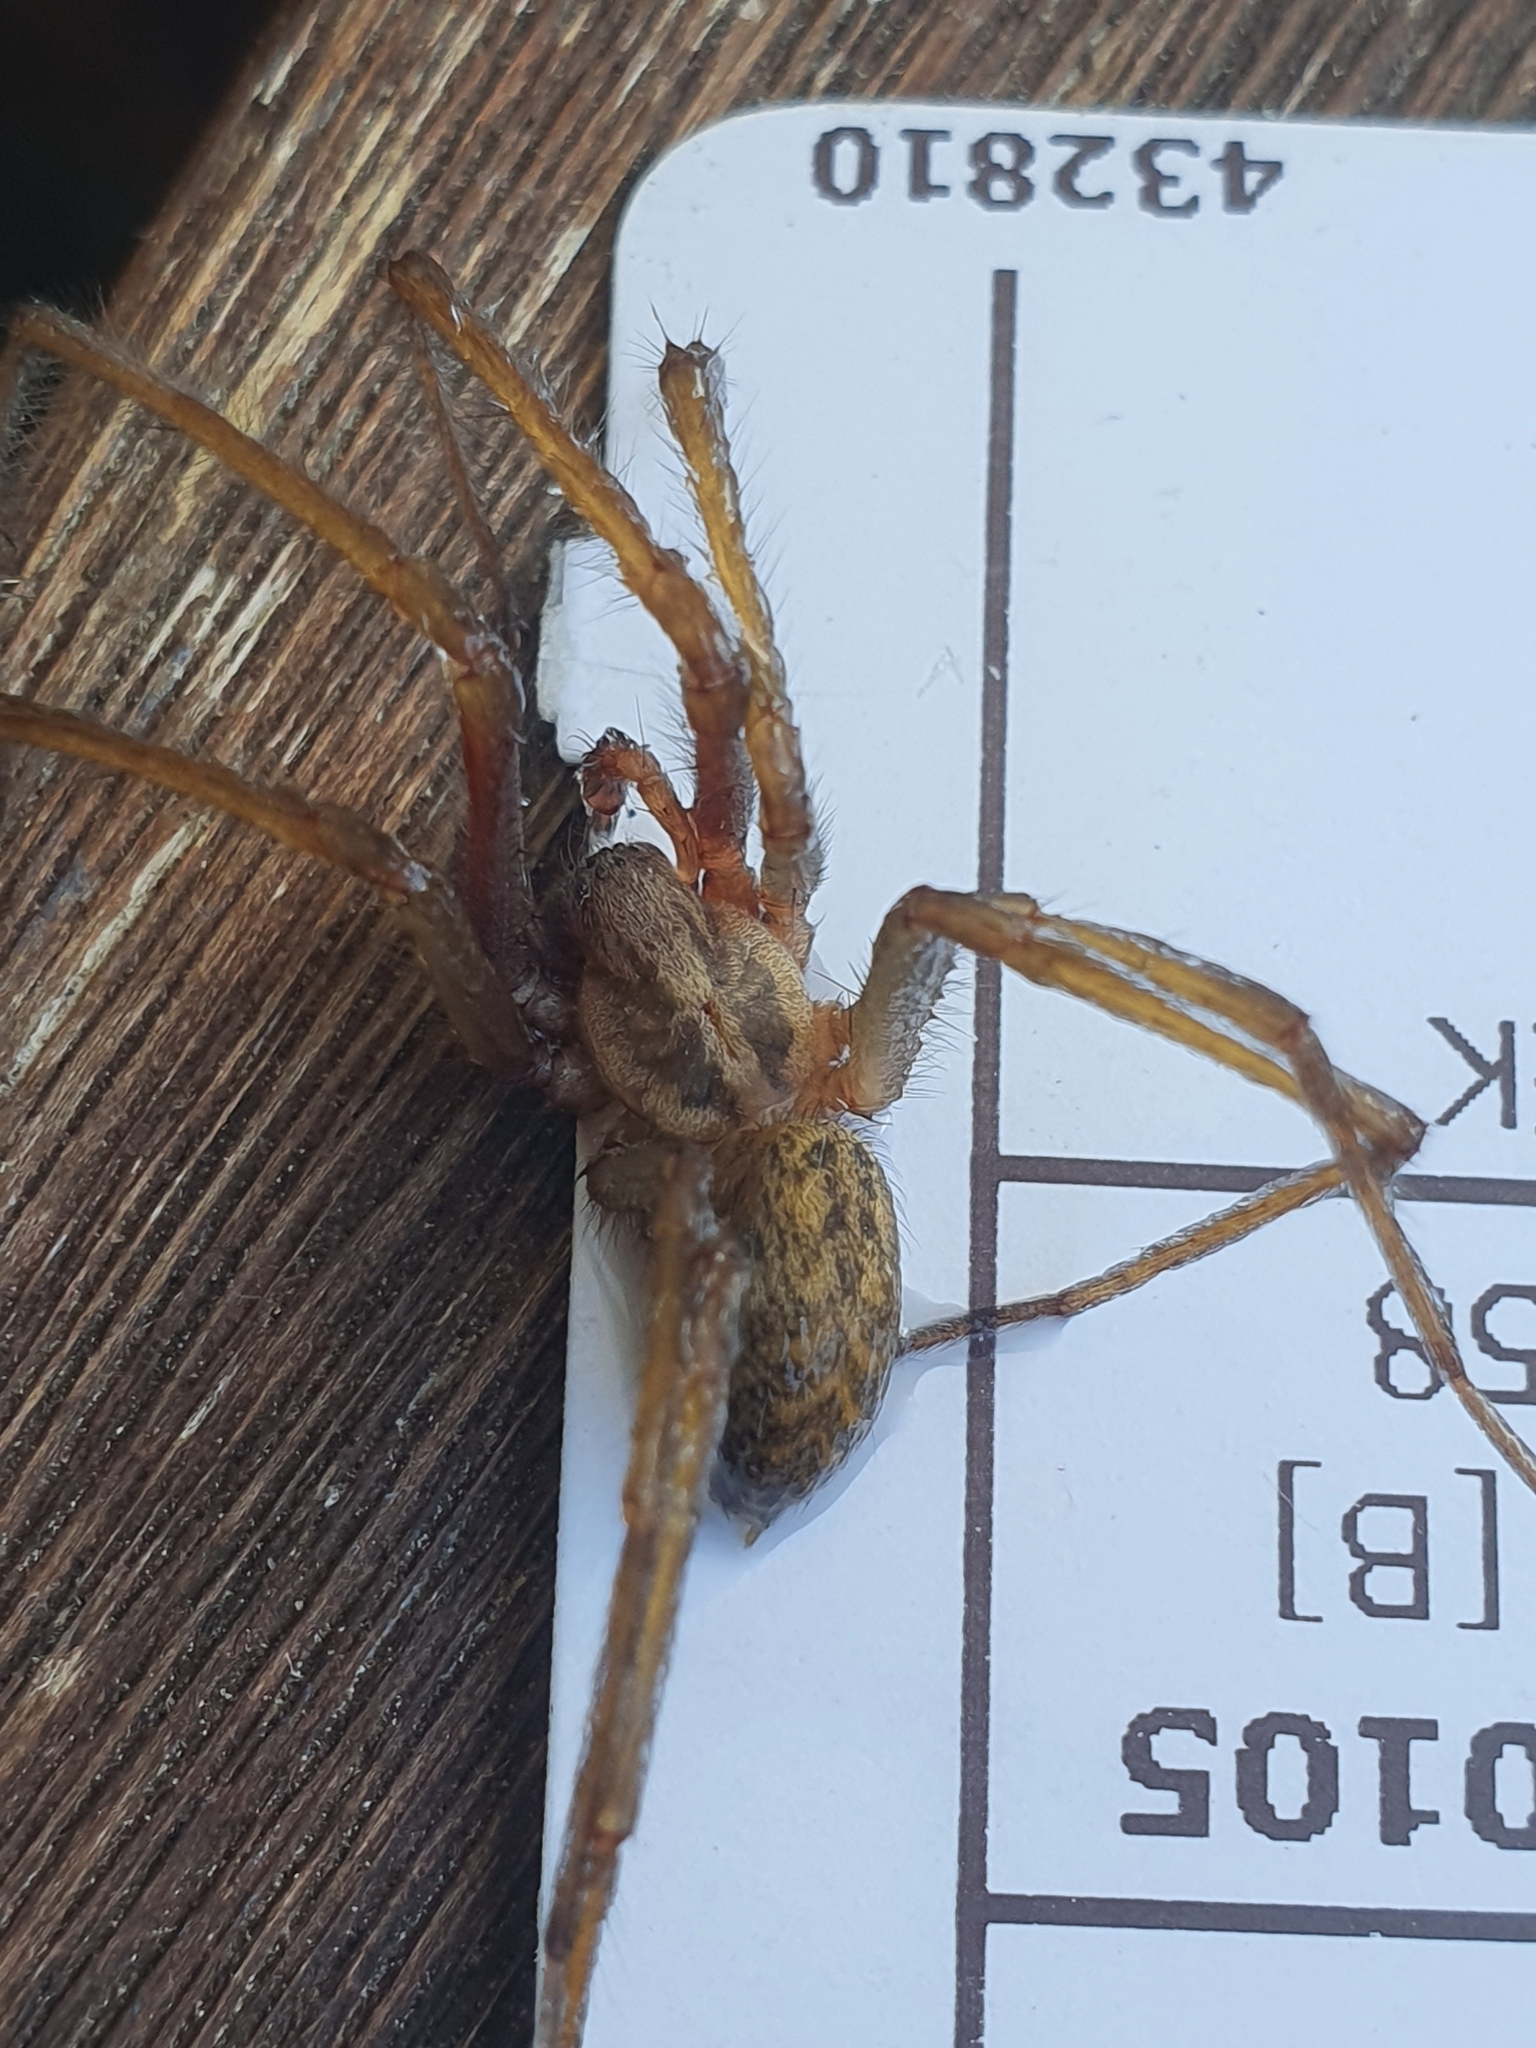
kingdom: Animalia
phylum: Arthropoda
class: Arachnida
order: Araneae
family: Agelenidae
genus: Eratigena
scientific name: Eratigena atrica
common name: Giant house spider
